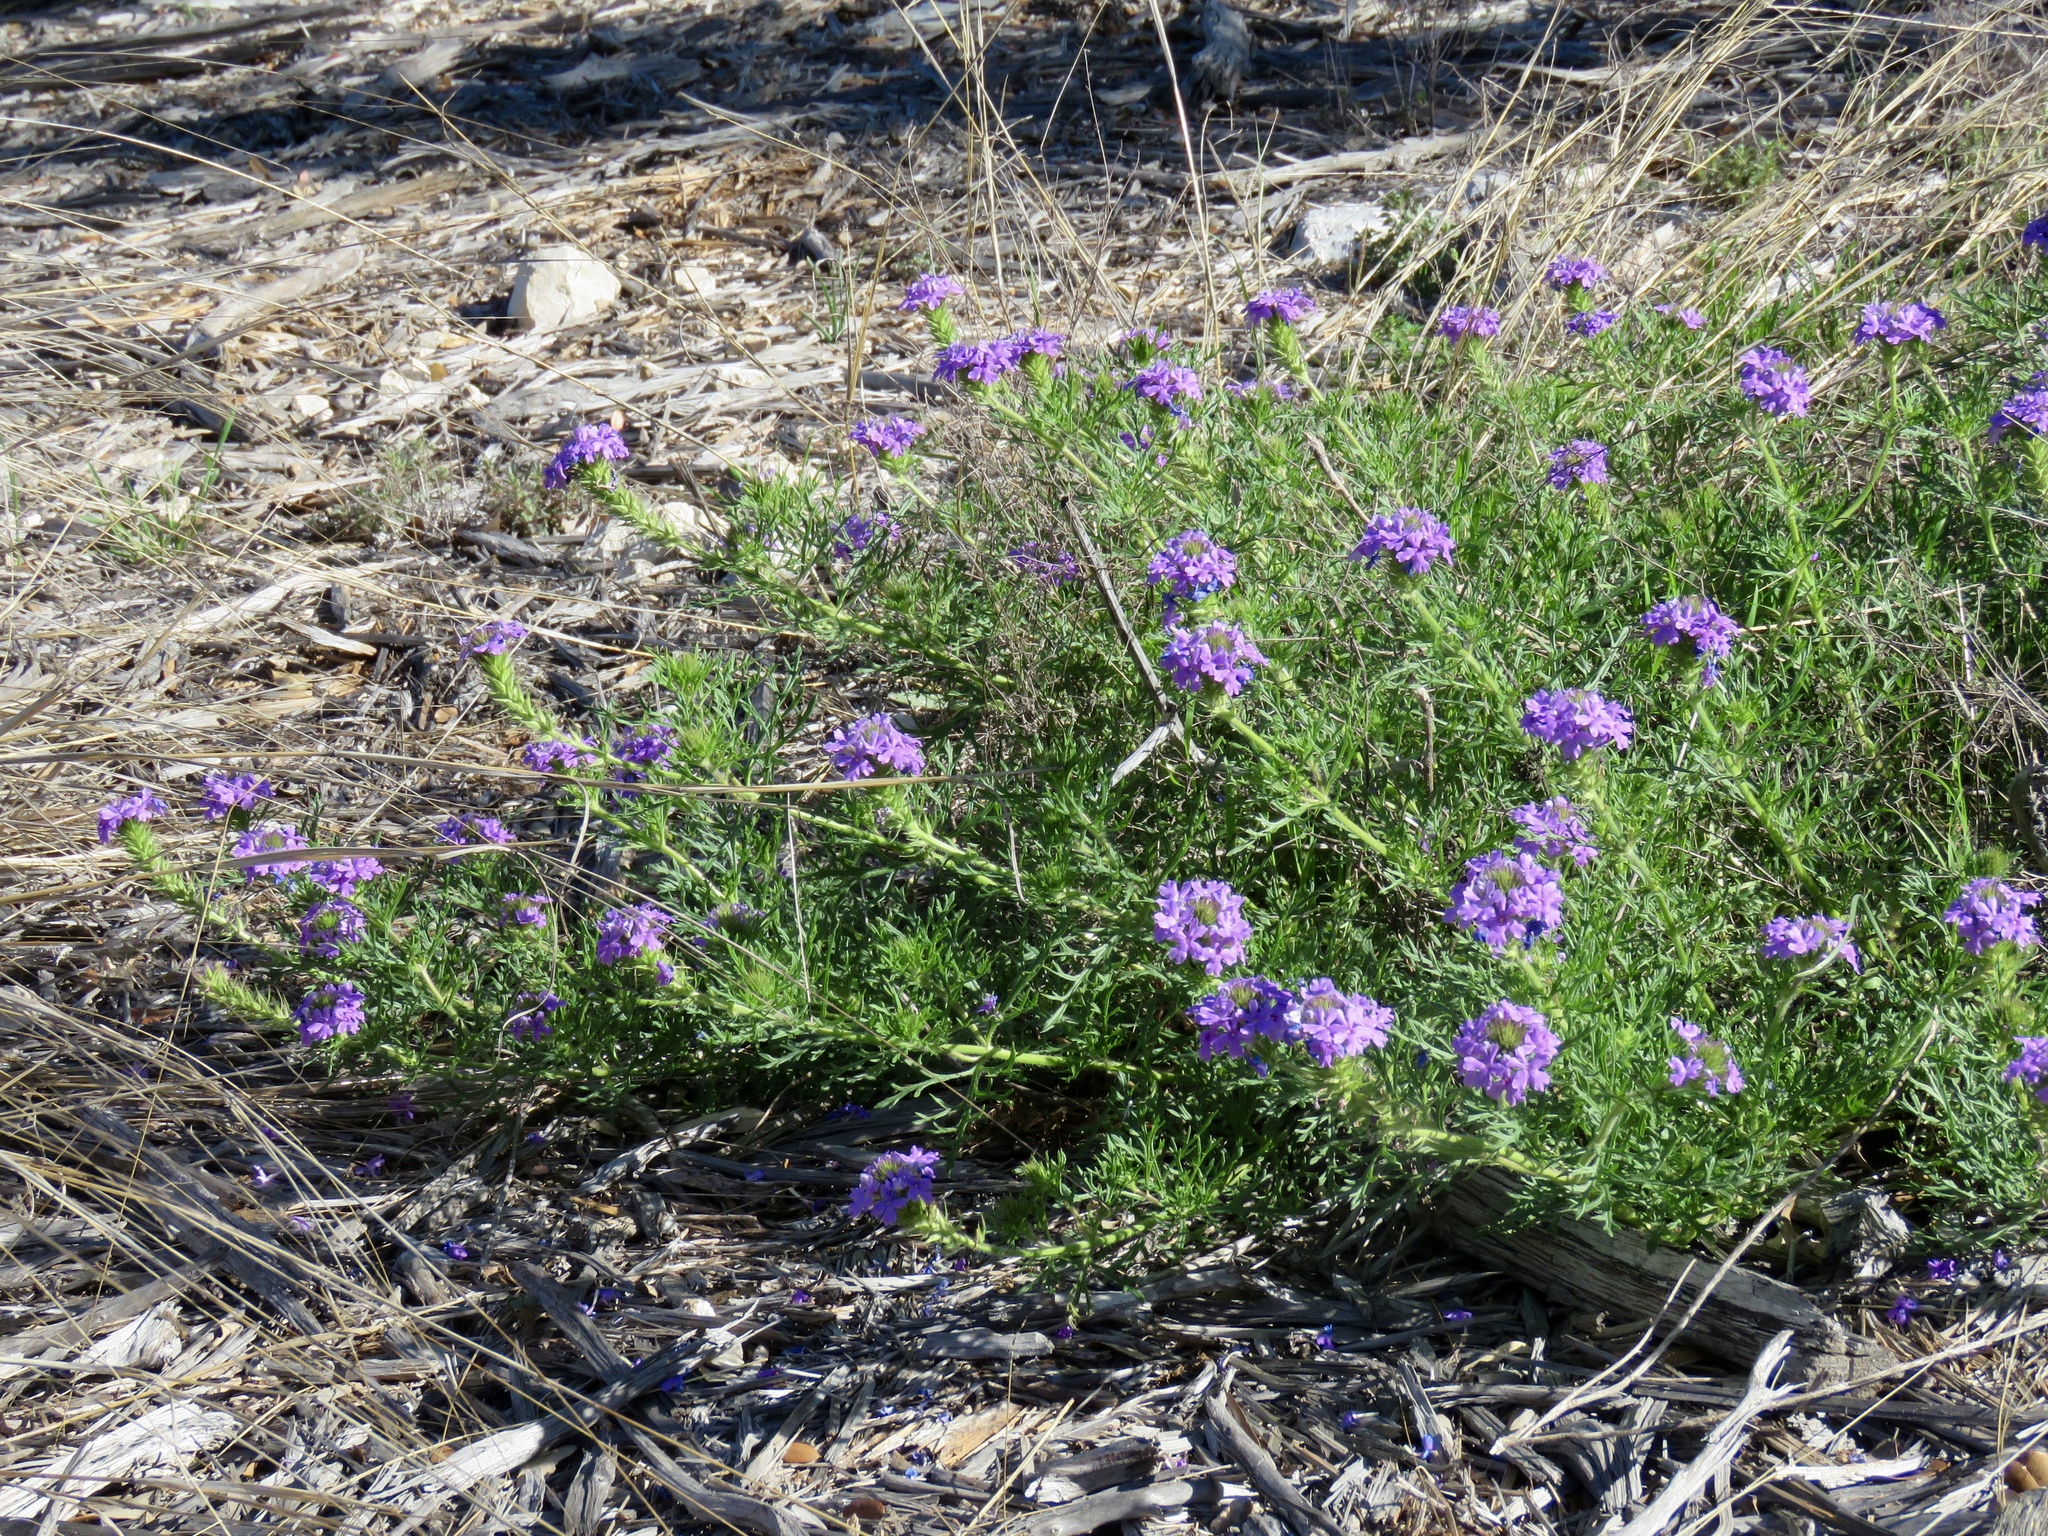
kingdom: Plantae
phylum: Tracheophyta
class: Magnoliopsida
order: Lamiales
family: Verbenaceae
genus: Verbena
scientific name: Verbena bipinnatifida
